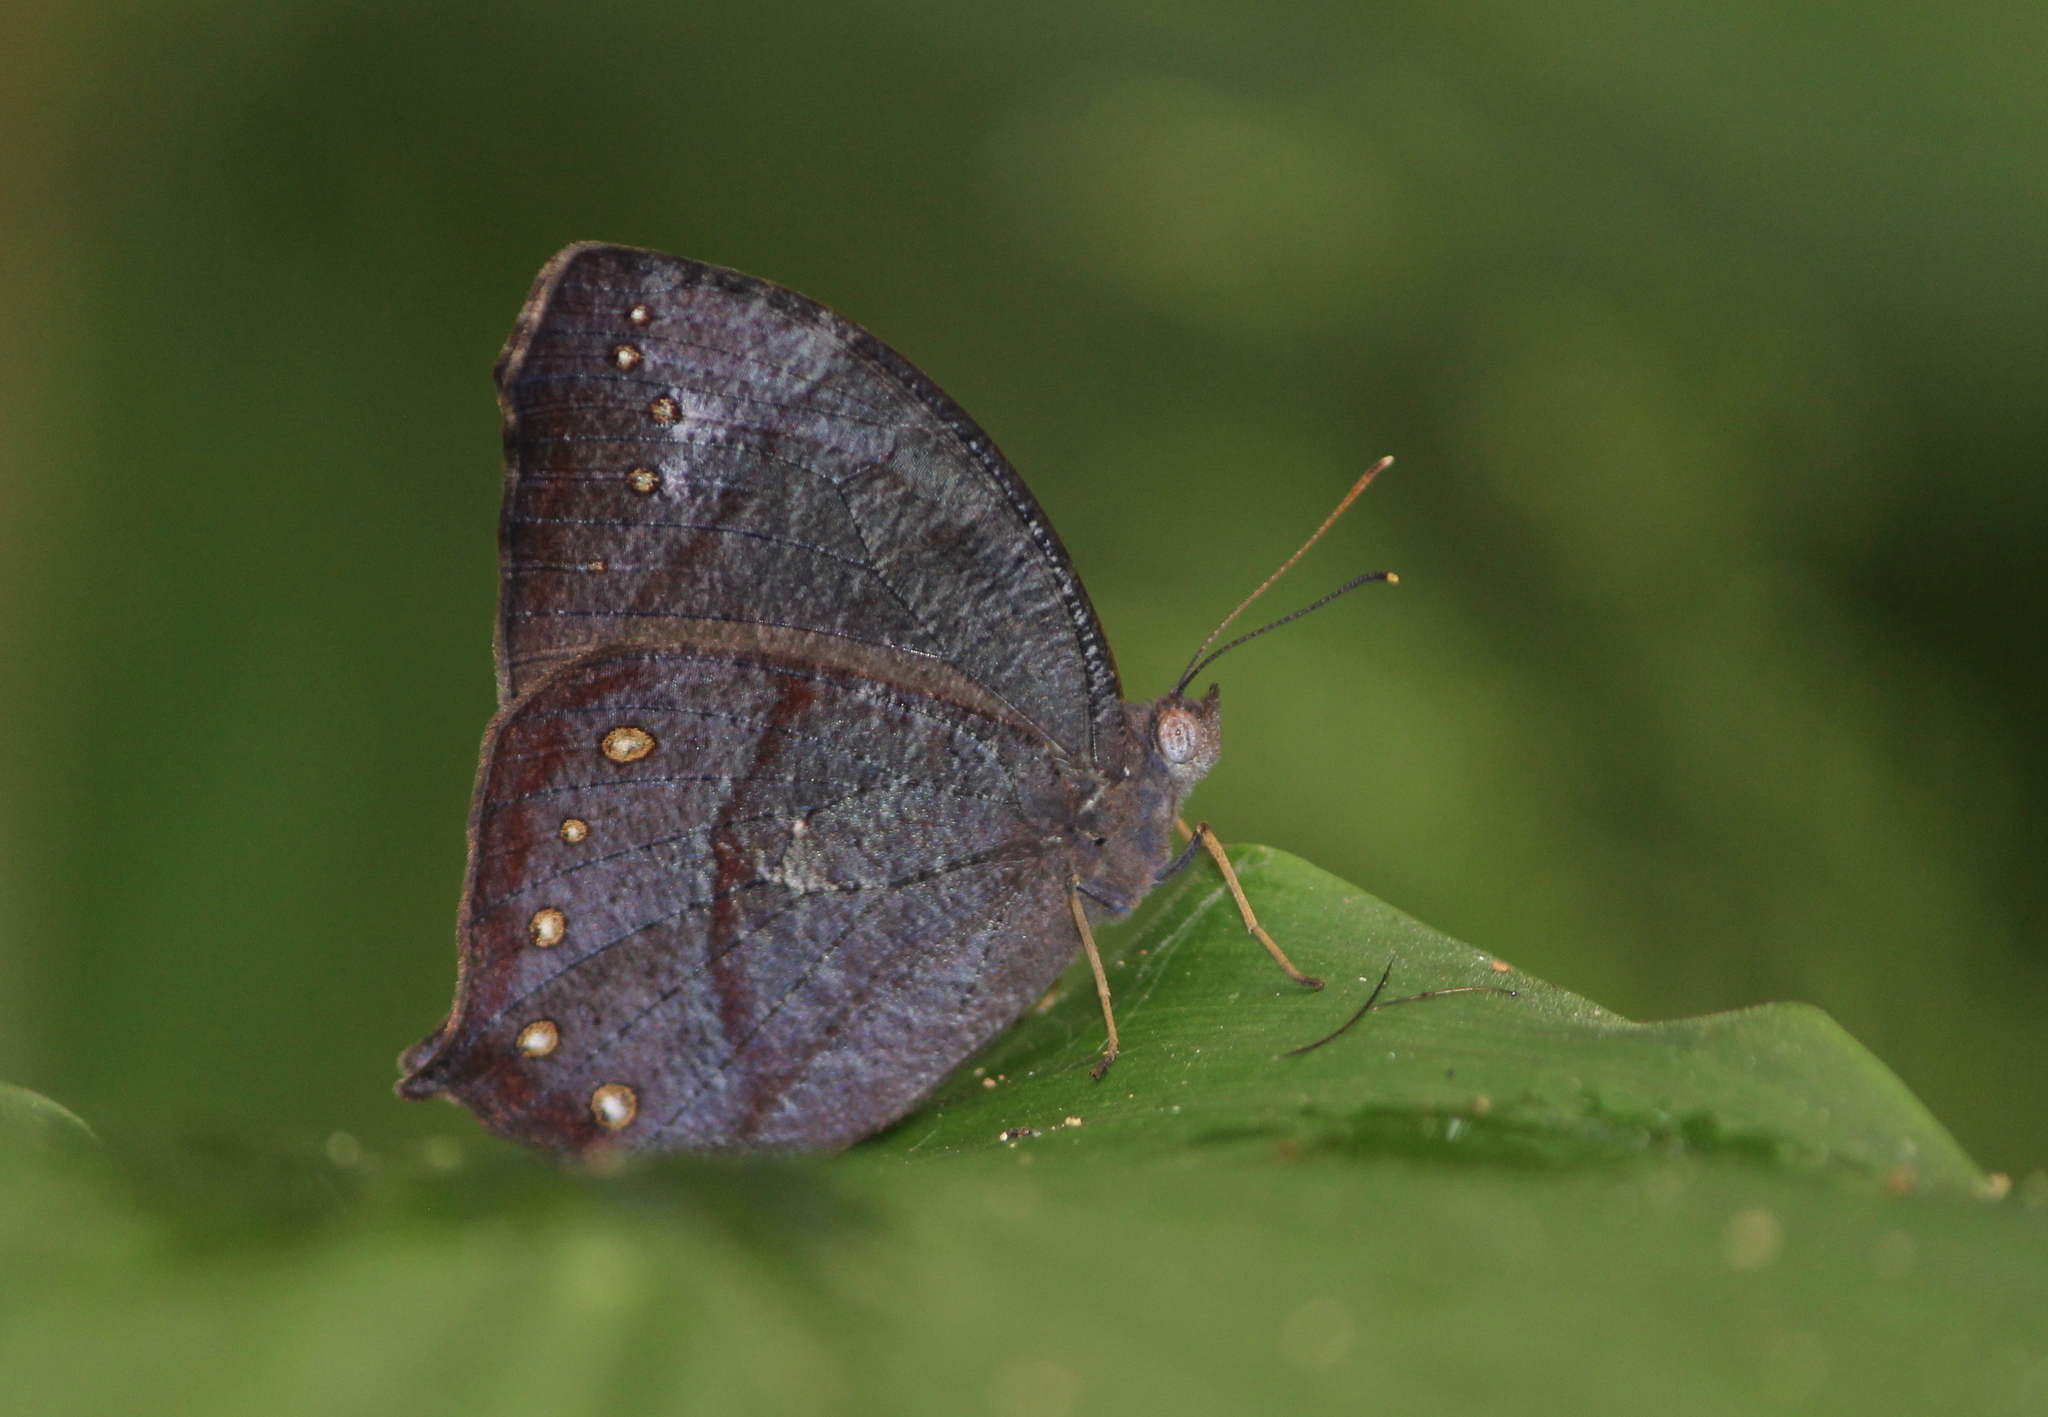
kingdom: Animalia
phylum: Arthropoda
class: Insecta
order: Lepidoptera
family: Nymphalidae
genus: Melanitis
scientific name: Melanitis phedima
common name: Dark evening brown
